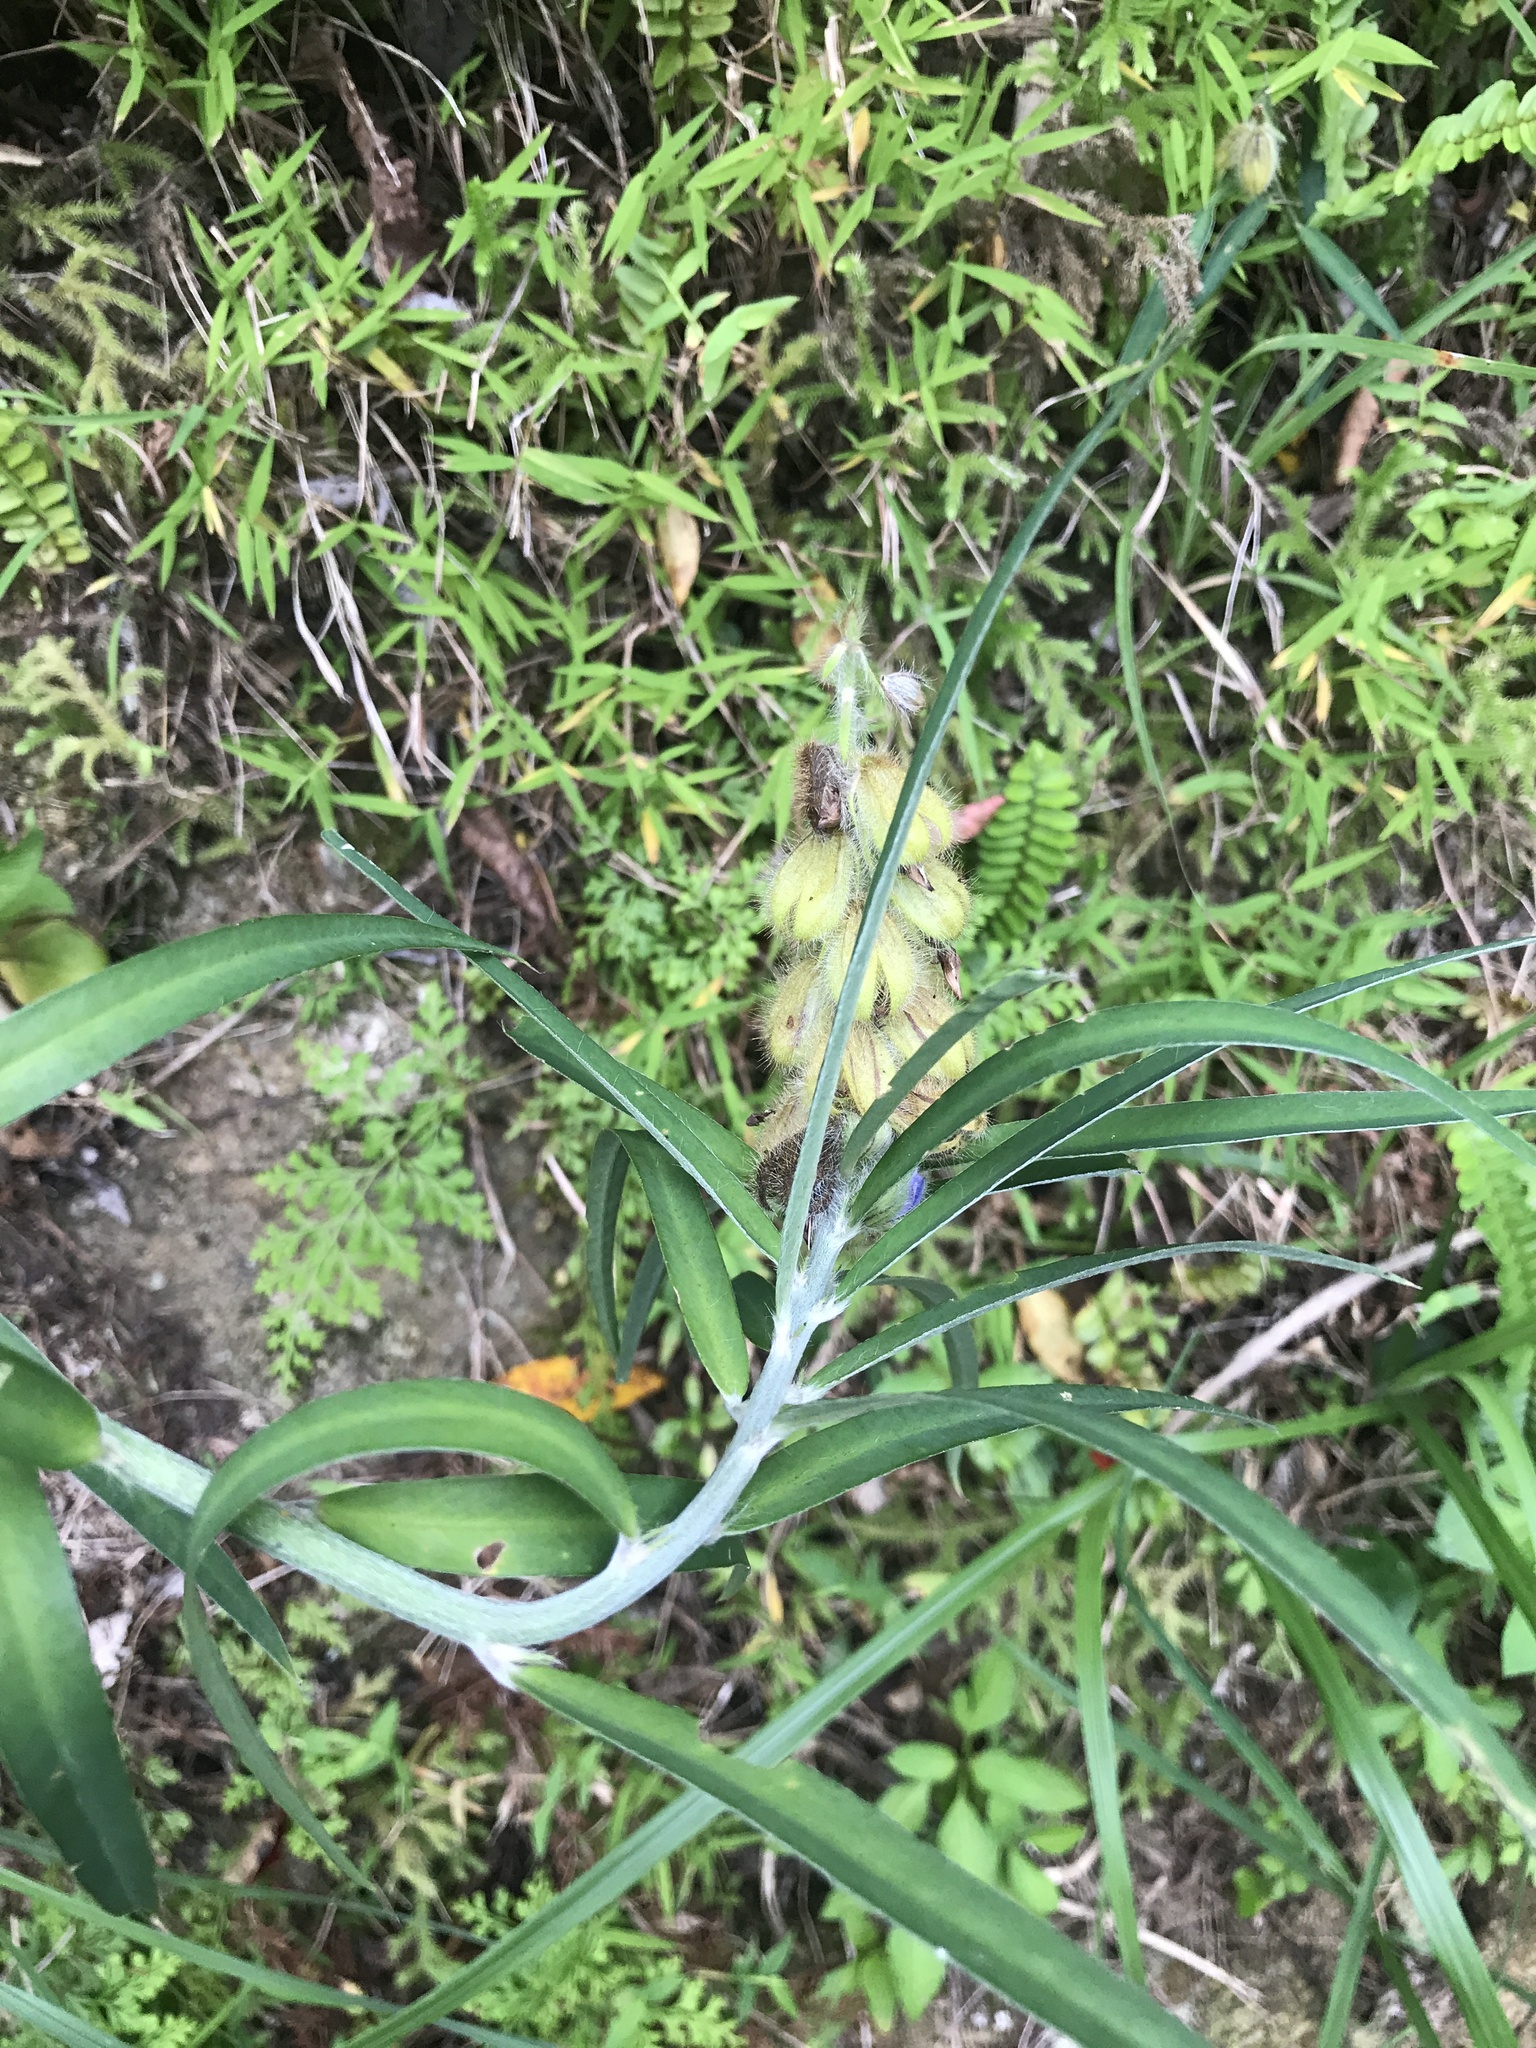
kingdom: Plantae
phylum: Tracheophyta
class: Magnoliopsida
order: Fabales
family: Fabaceae
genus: Crotalaria
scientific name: Crotalaria sessiliflora
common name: Rattlebox
